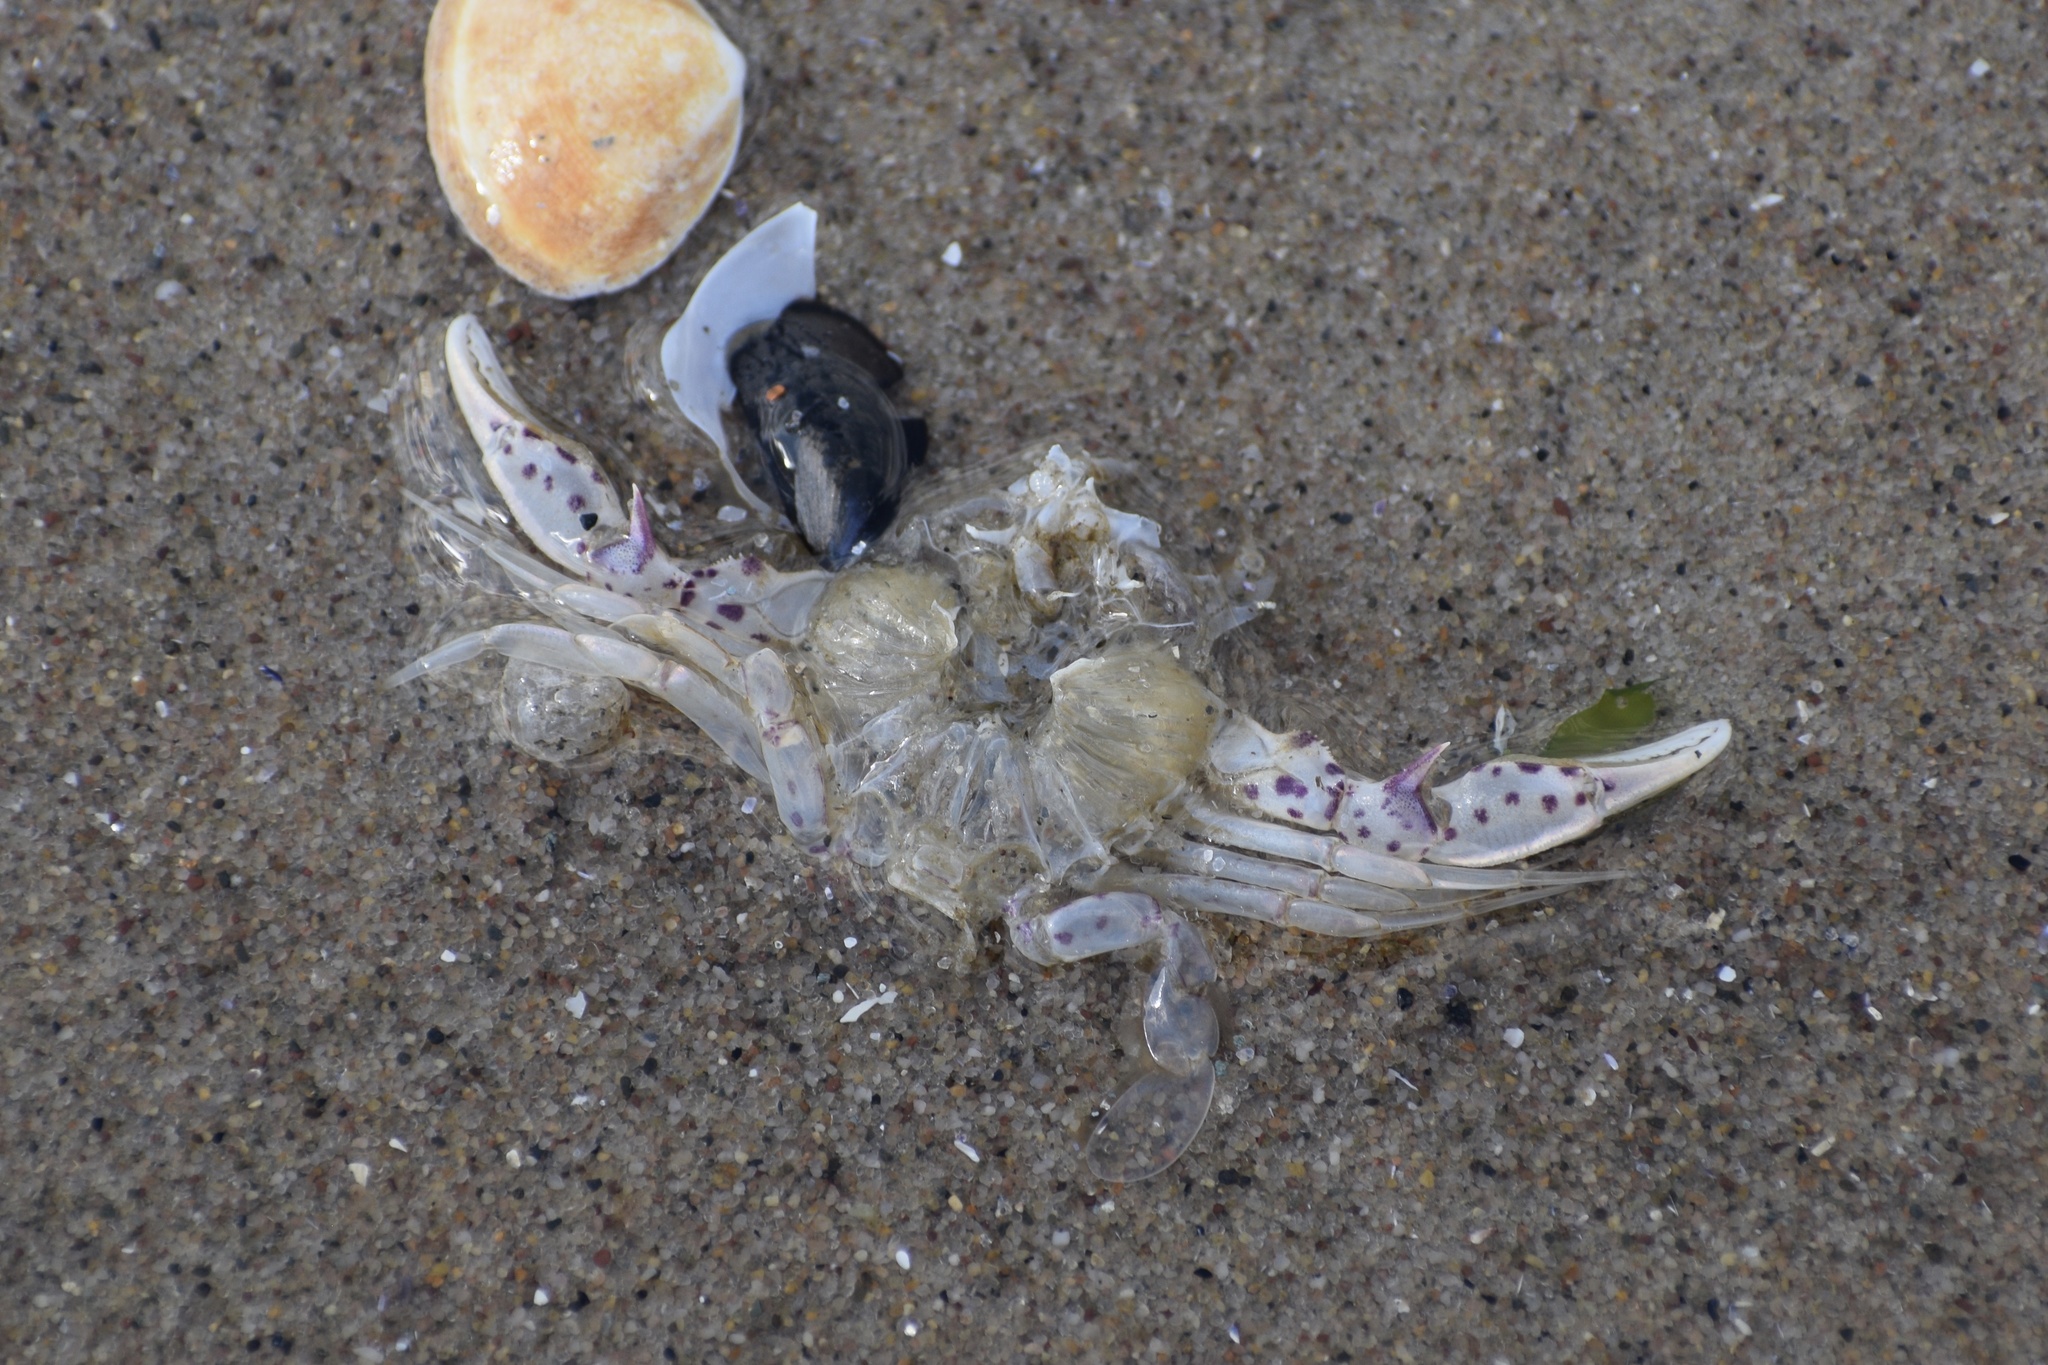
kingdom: Animalia
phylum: Arthropoda
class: Malacostraca
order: Decapoda
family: Ovalipidae
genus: Ovalipes
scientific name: Ovalipes ocellatus
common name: Lady crab
